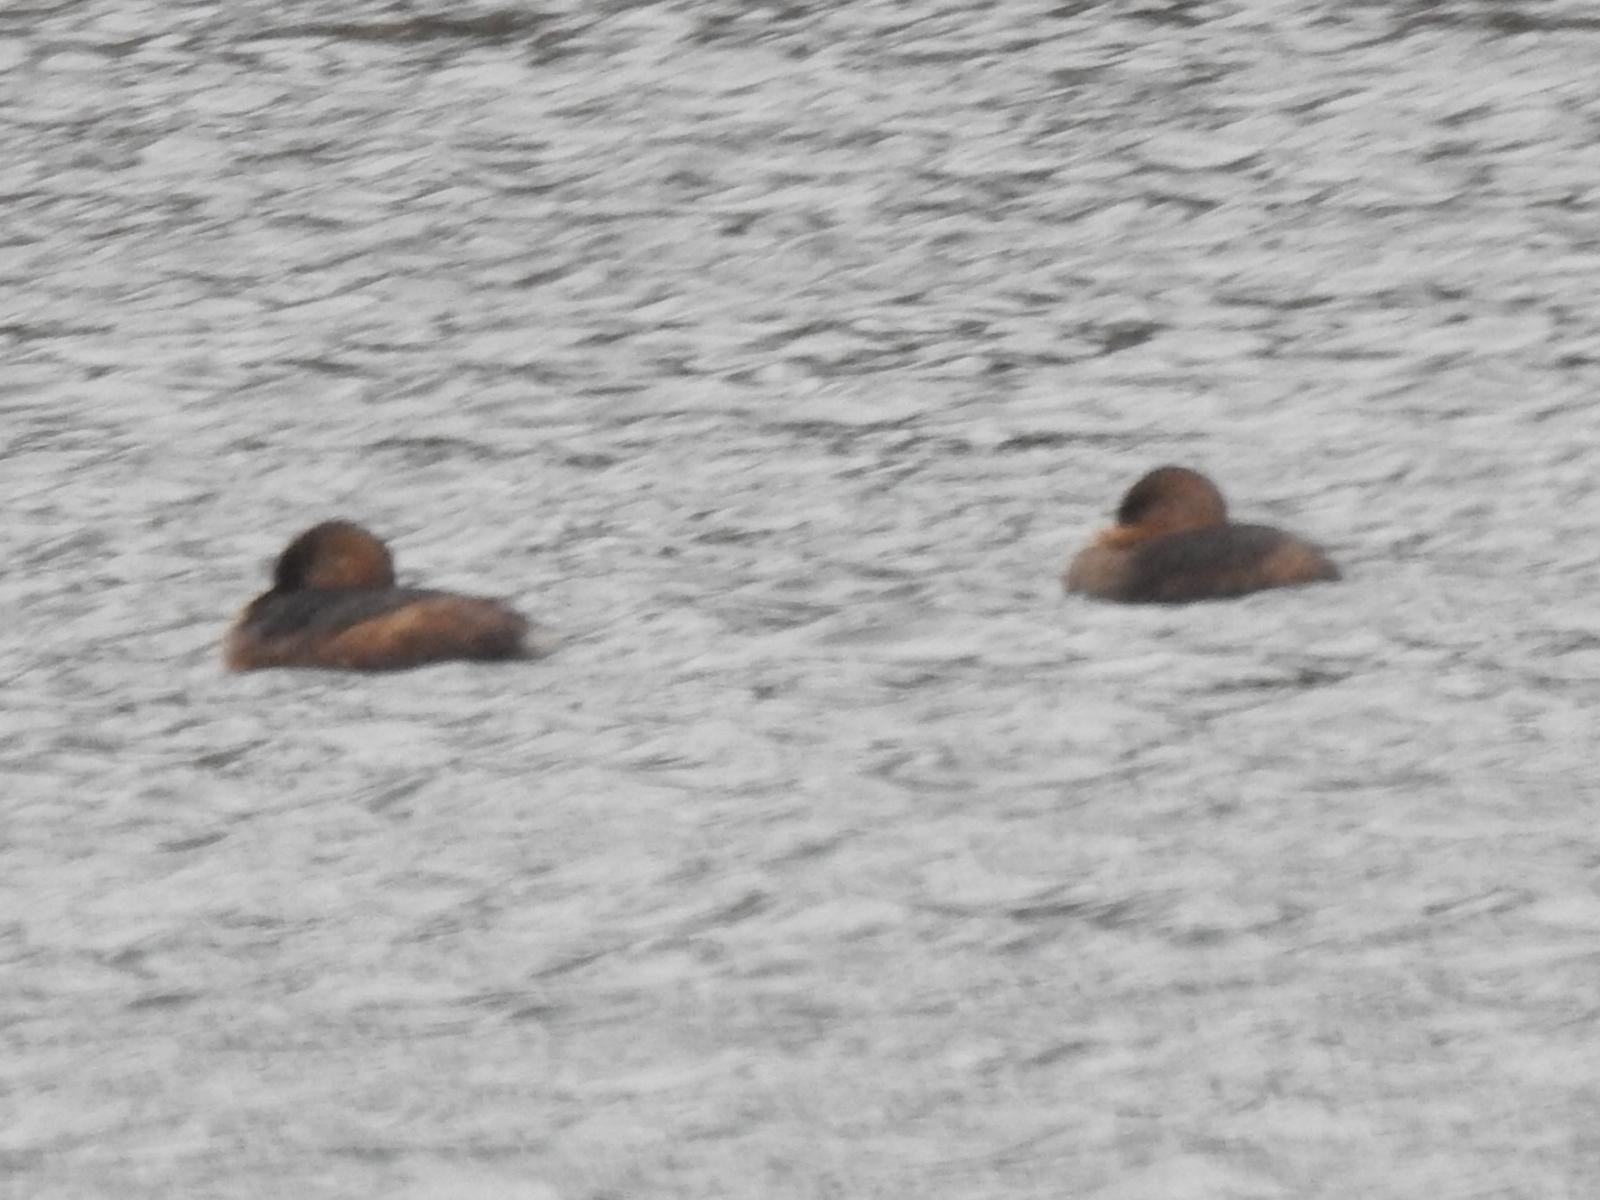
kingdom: Animalia
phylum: Chordata
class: Aves
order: Podicipediformes
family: Podicipedidae
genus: Podilymbus
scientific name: Podilymbus podiceps
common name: Pied-billed grebe
